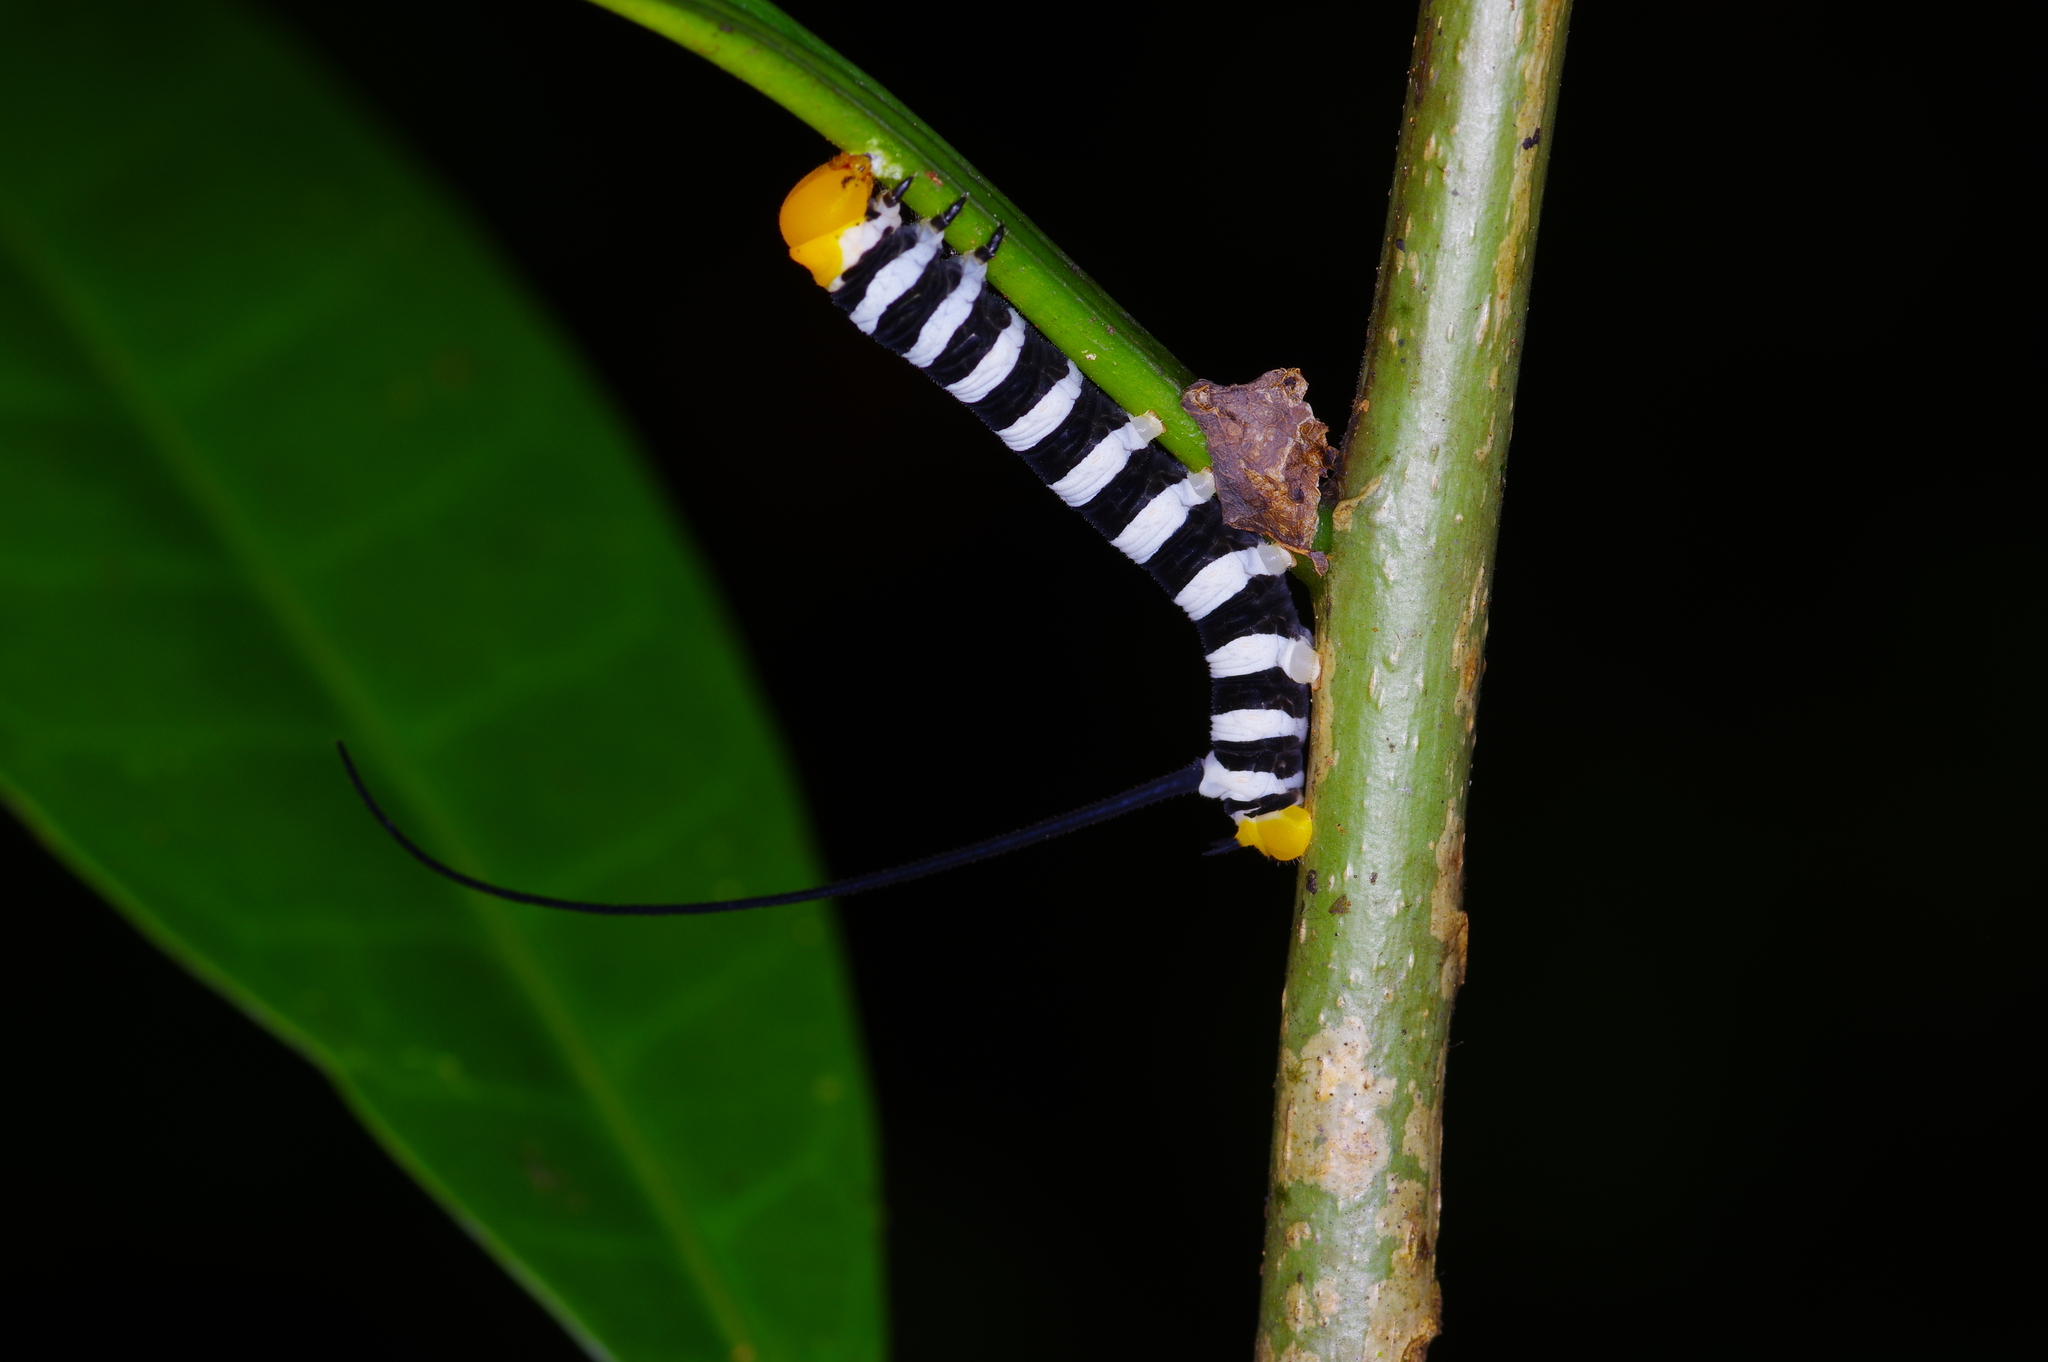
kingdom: Animalia
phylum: Arthropoda
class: Insecta
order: Lepidoptera
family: Sphingidae
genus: Isognathus
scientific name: Isognathus swainsoni
